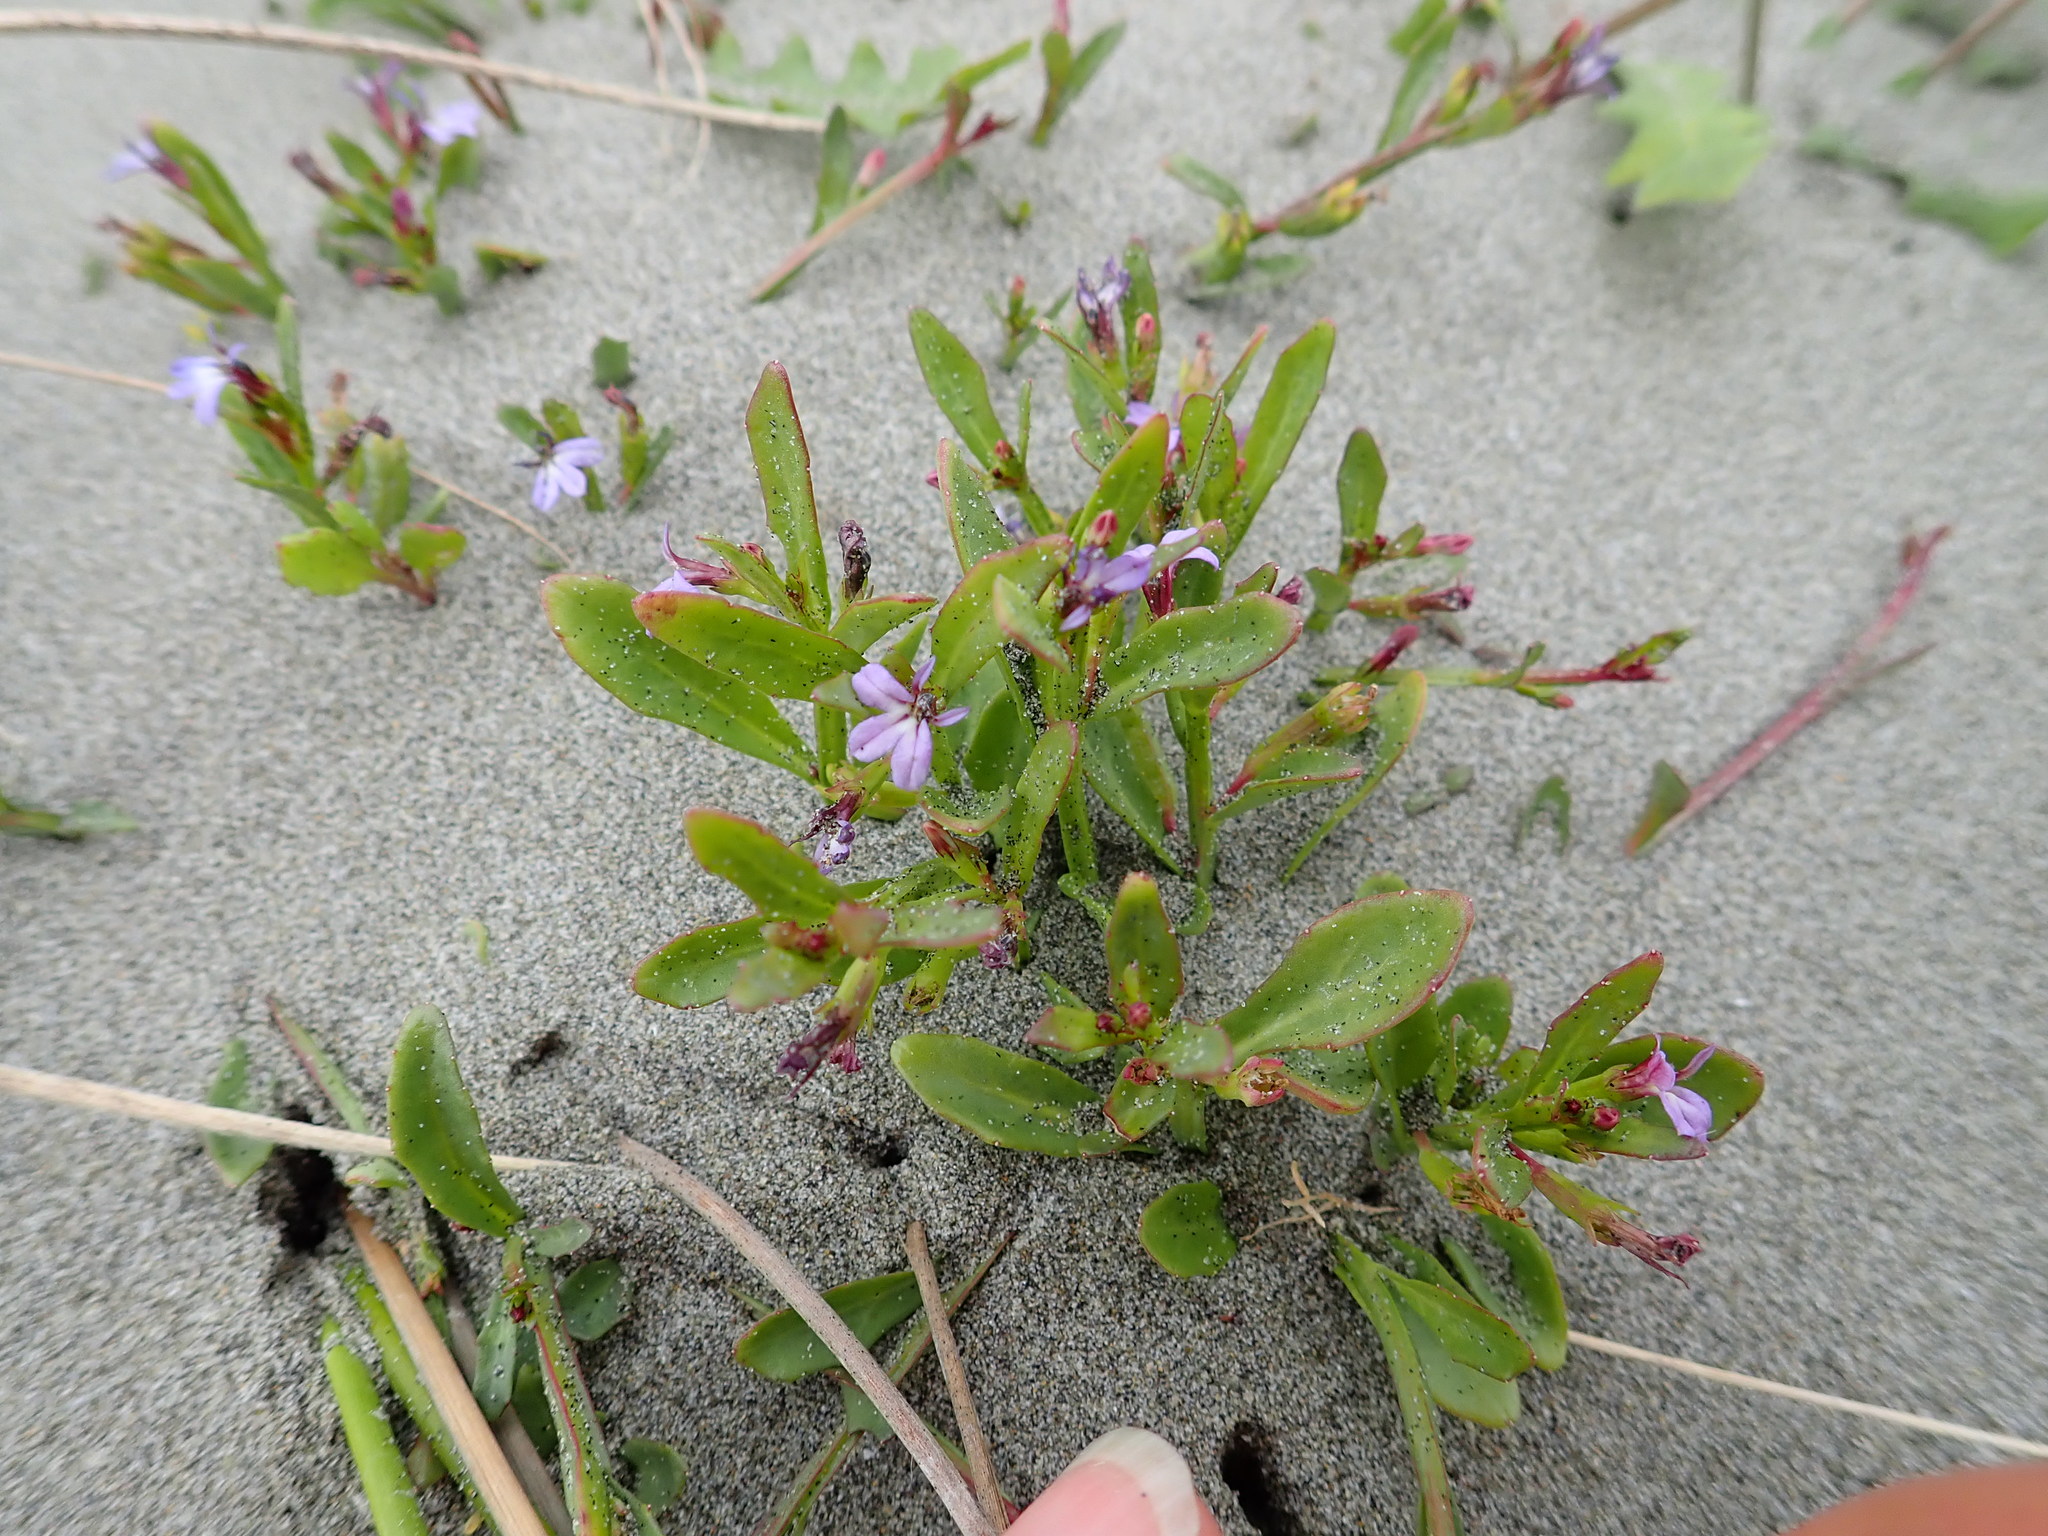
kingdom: Plantae
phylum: Tracheophyta
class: Magnoliopsida
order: Asterales
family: Campanulaceae
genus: Lobelia
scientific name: Lobelia anceps
